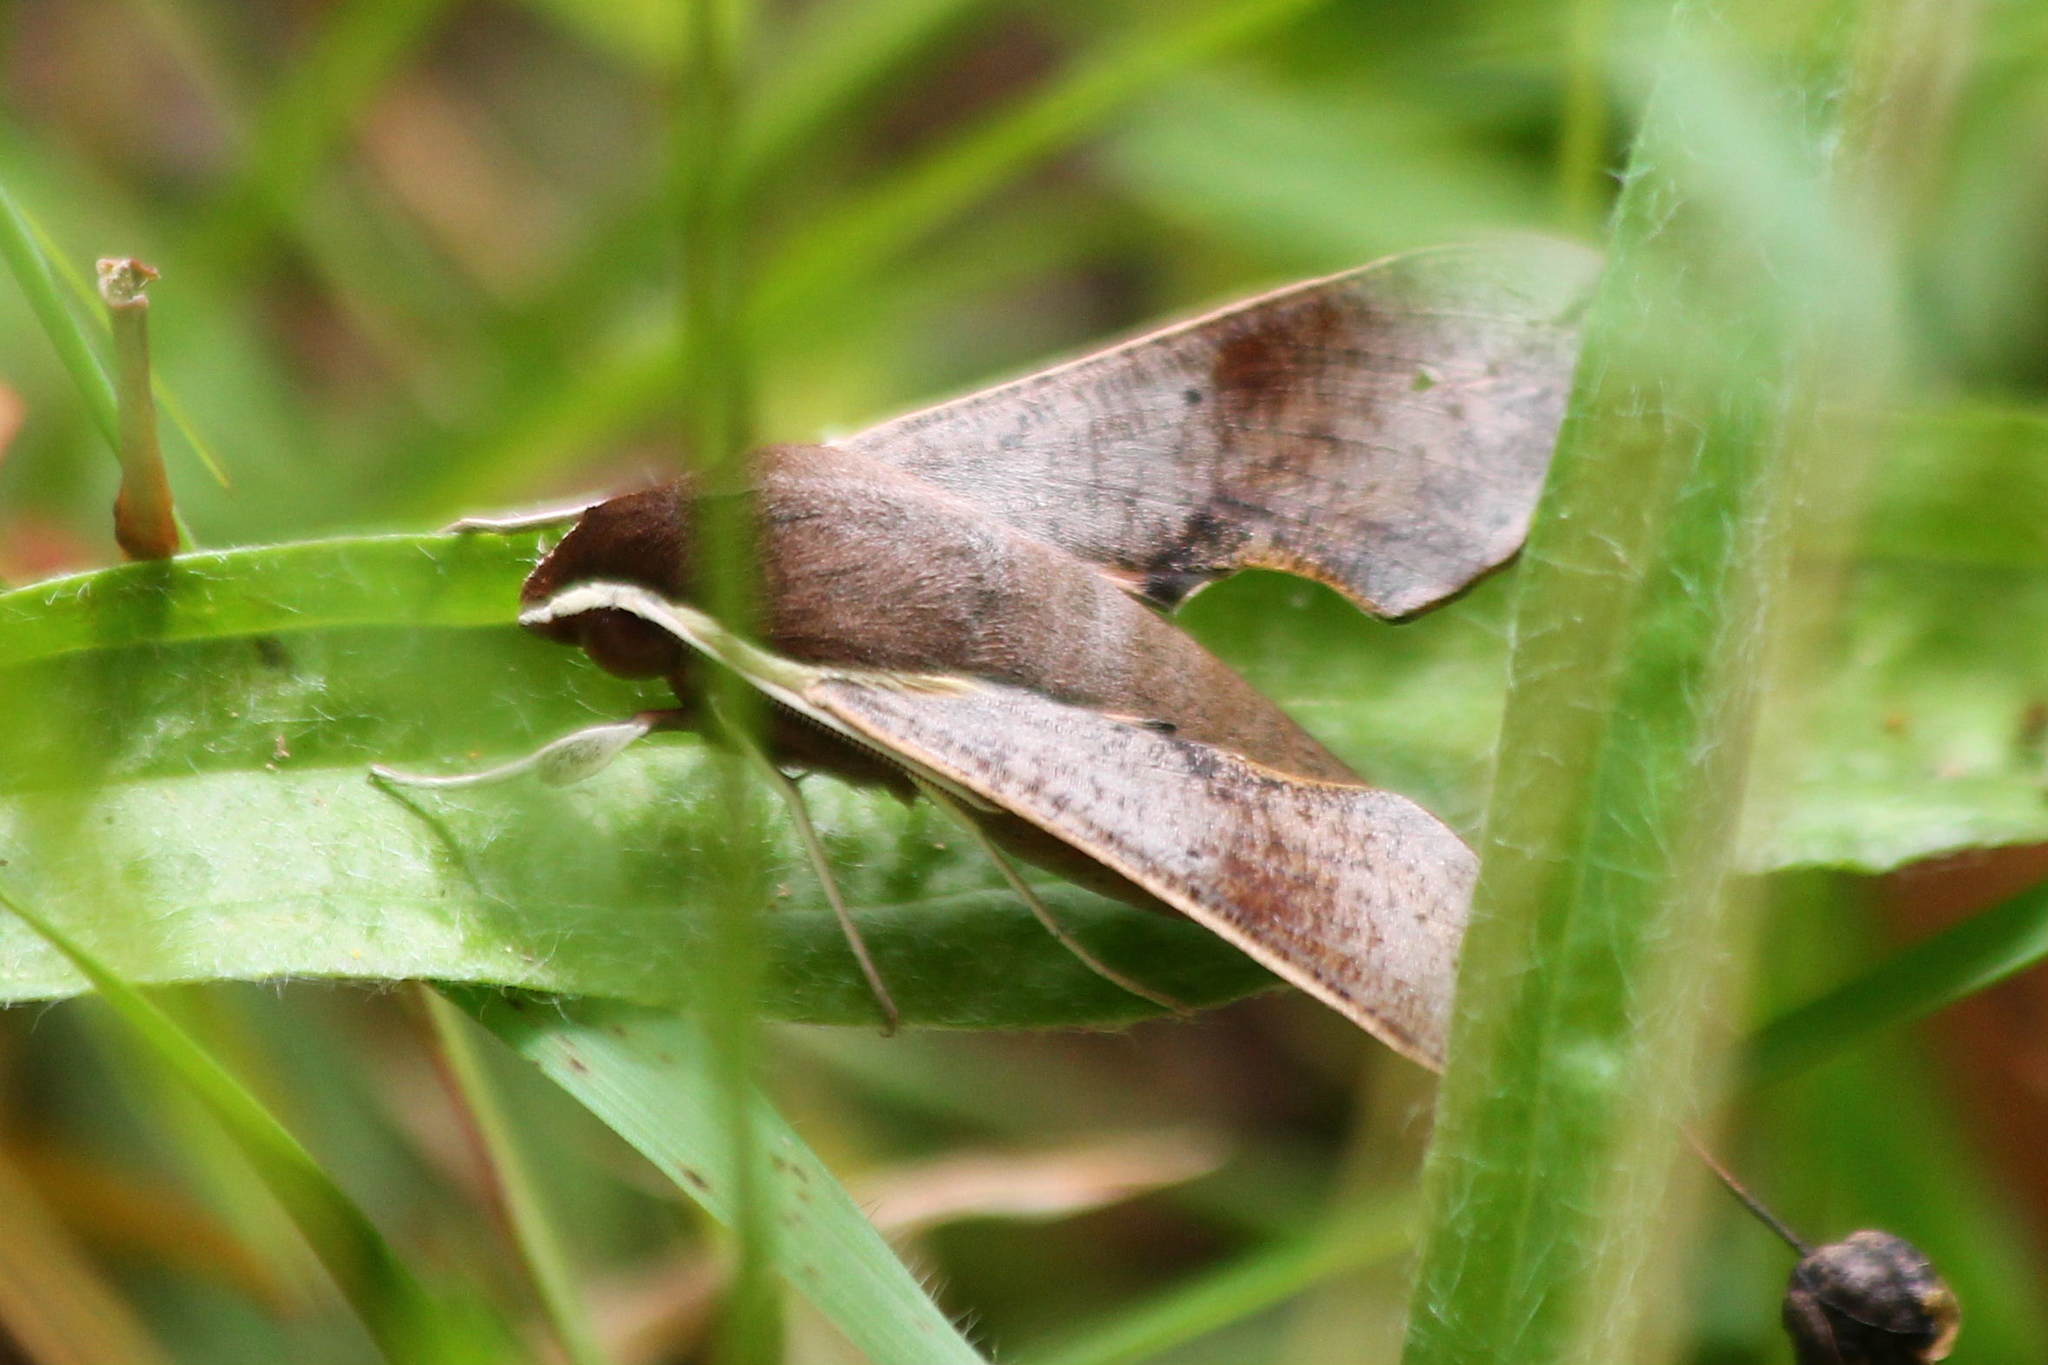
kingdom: Animalia
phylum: Arthropoda
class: Insecta
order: Lepidoptera
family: Sphingidae
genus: Hippotion
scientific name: Hippotion scrofa
